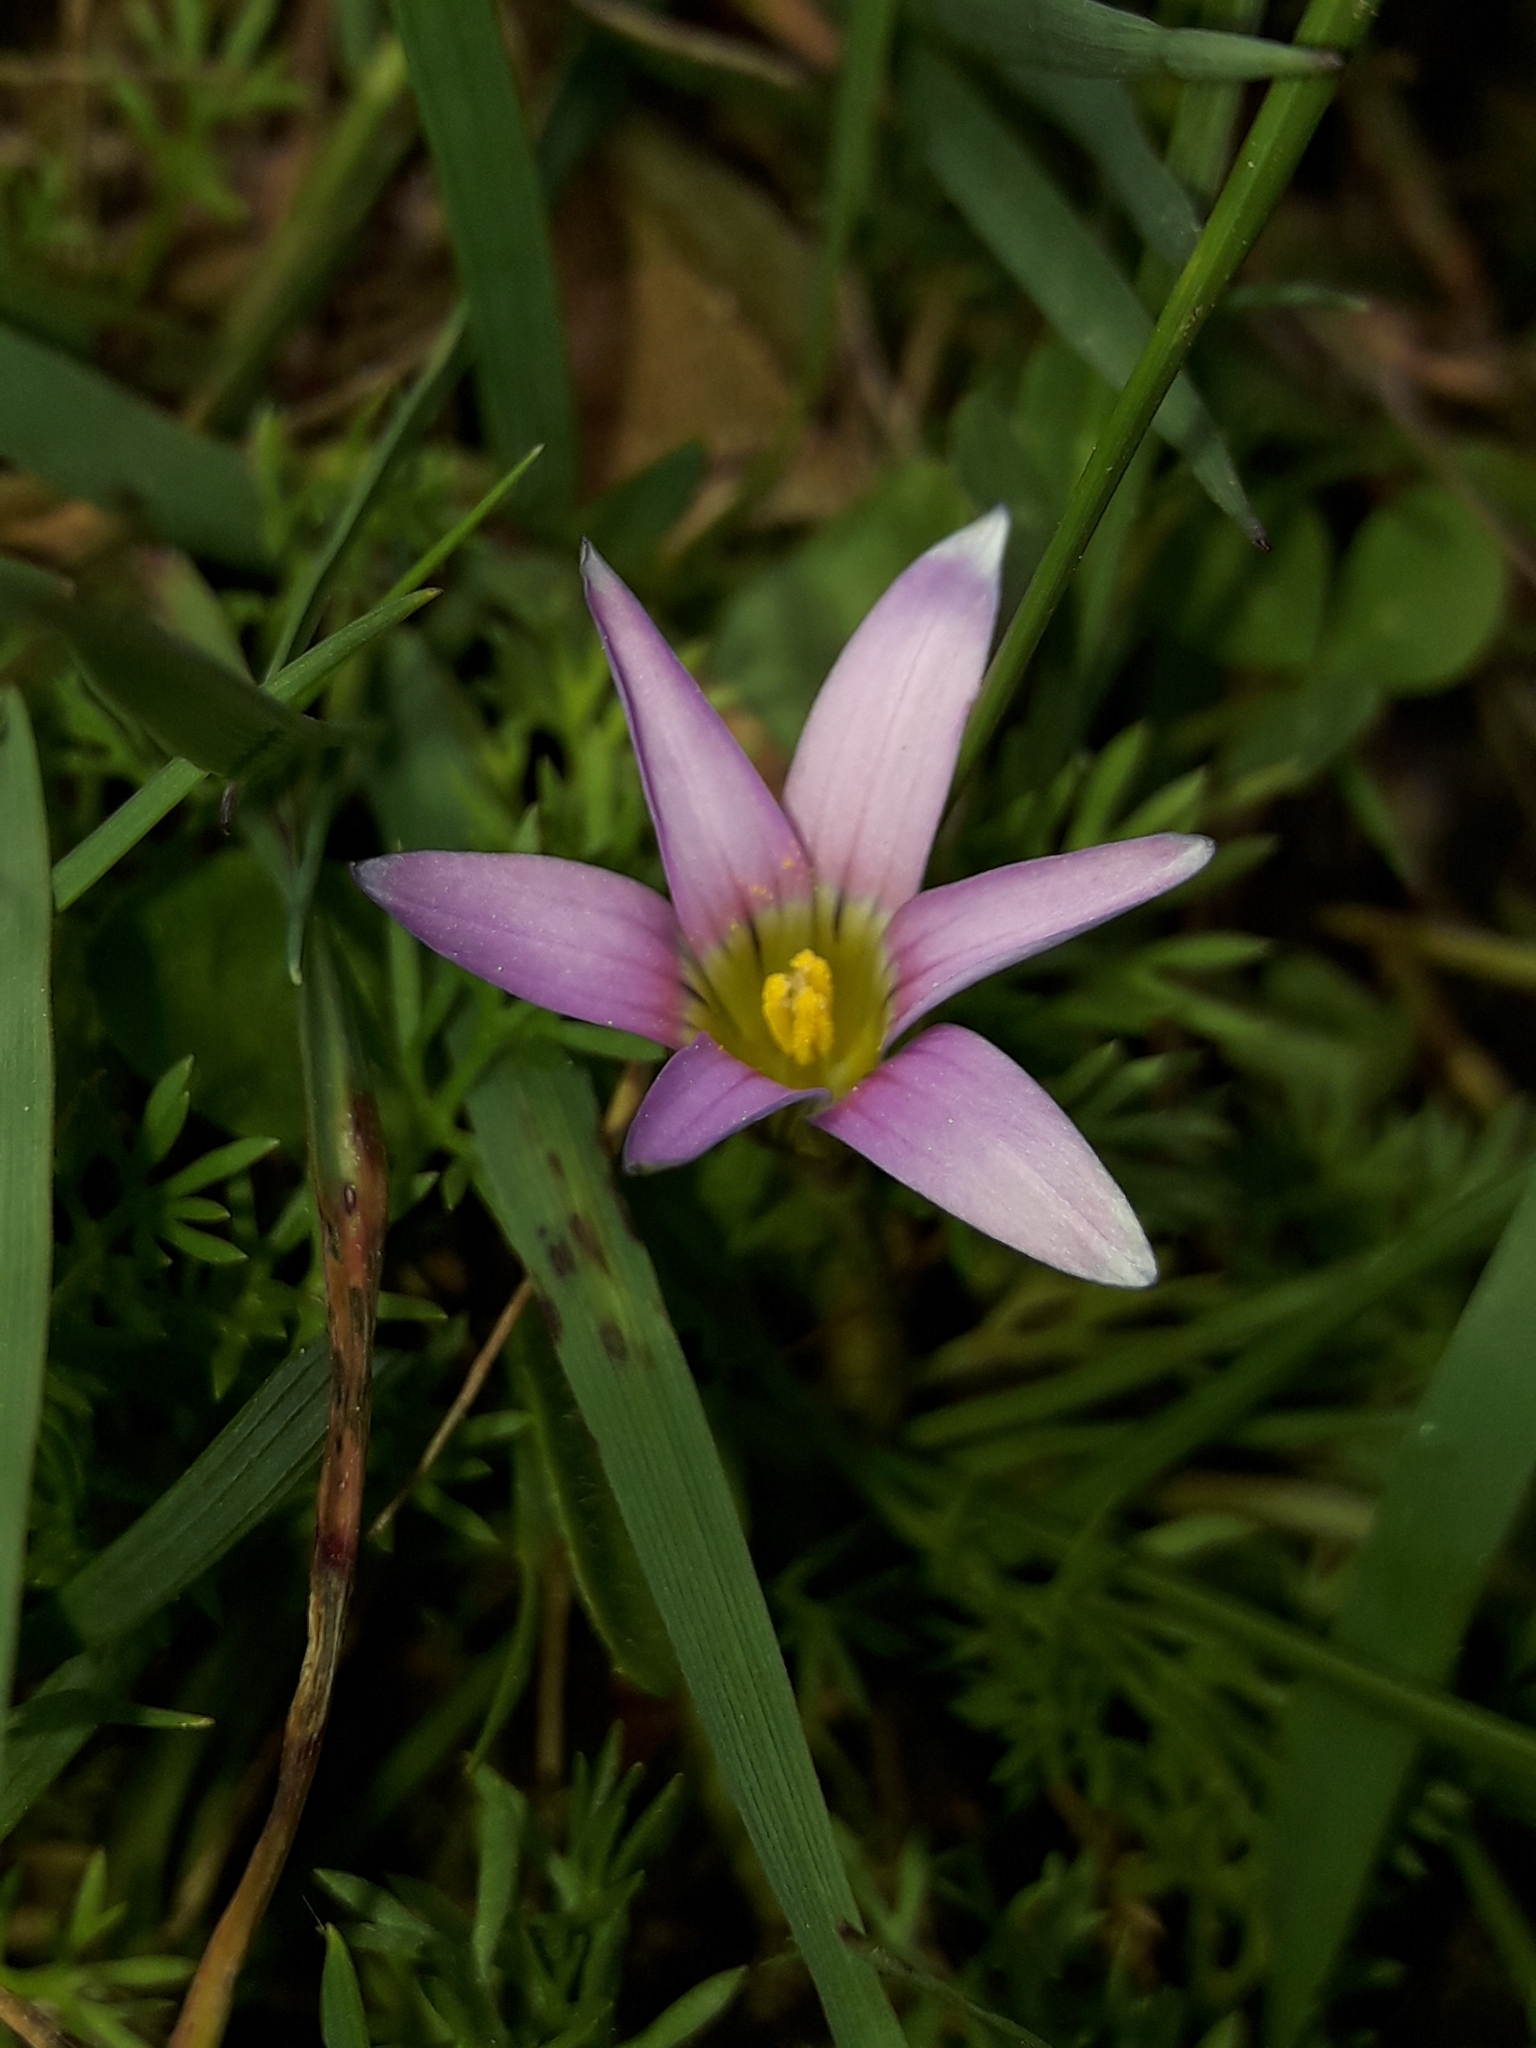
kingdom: Plantae
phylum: Tracheophyta
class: Liliopsida
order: Asparagales
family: Iridaceae
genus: Romulea
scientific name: Romulea rosea
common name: Oniongrass
